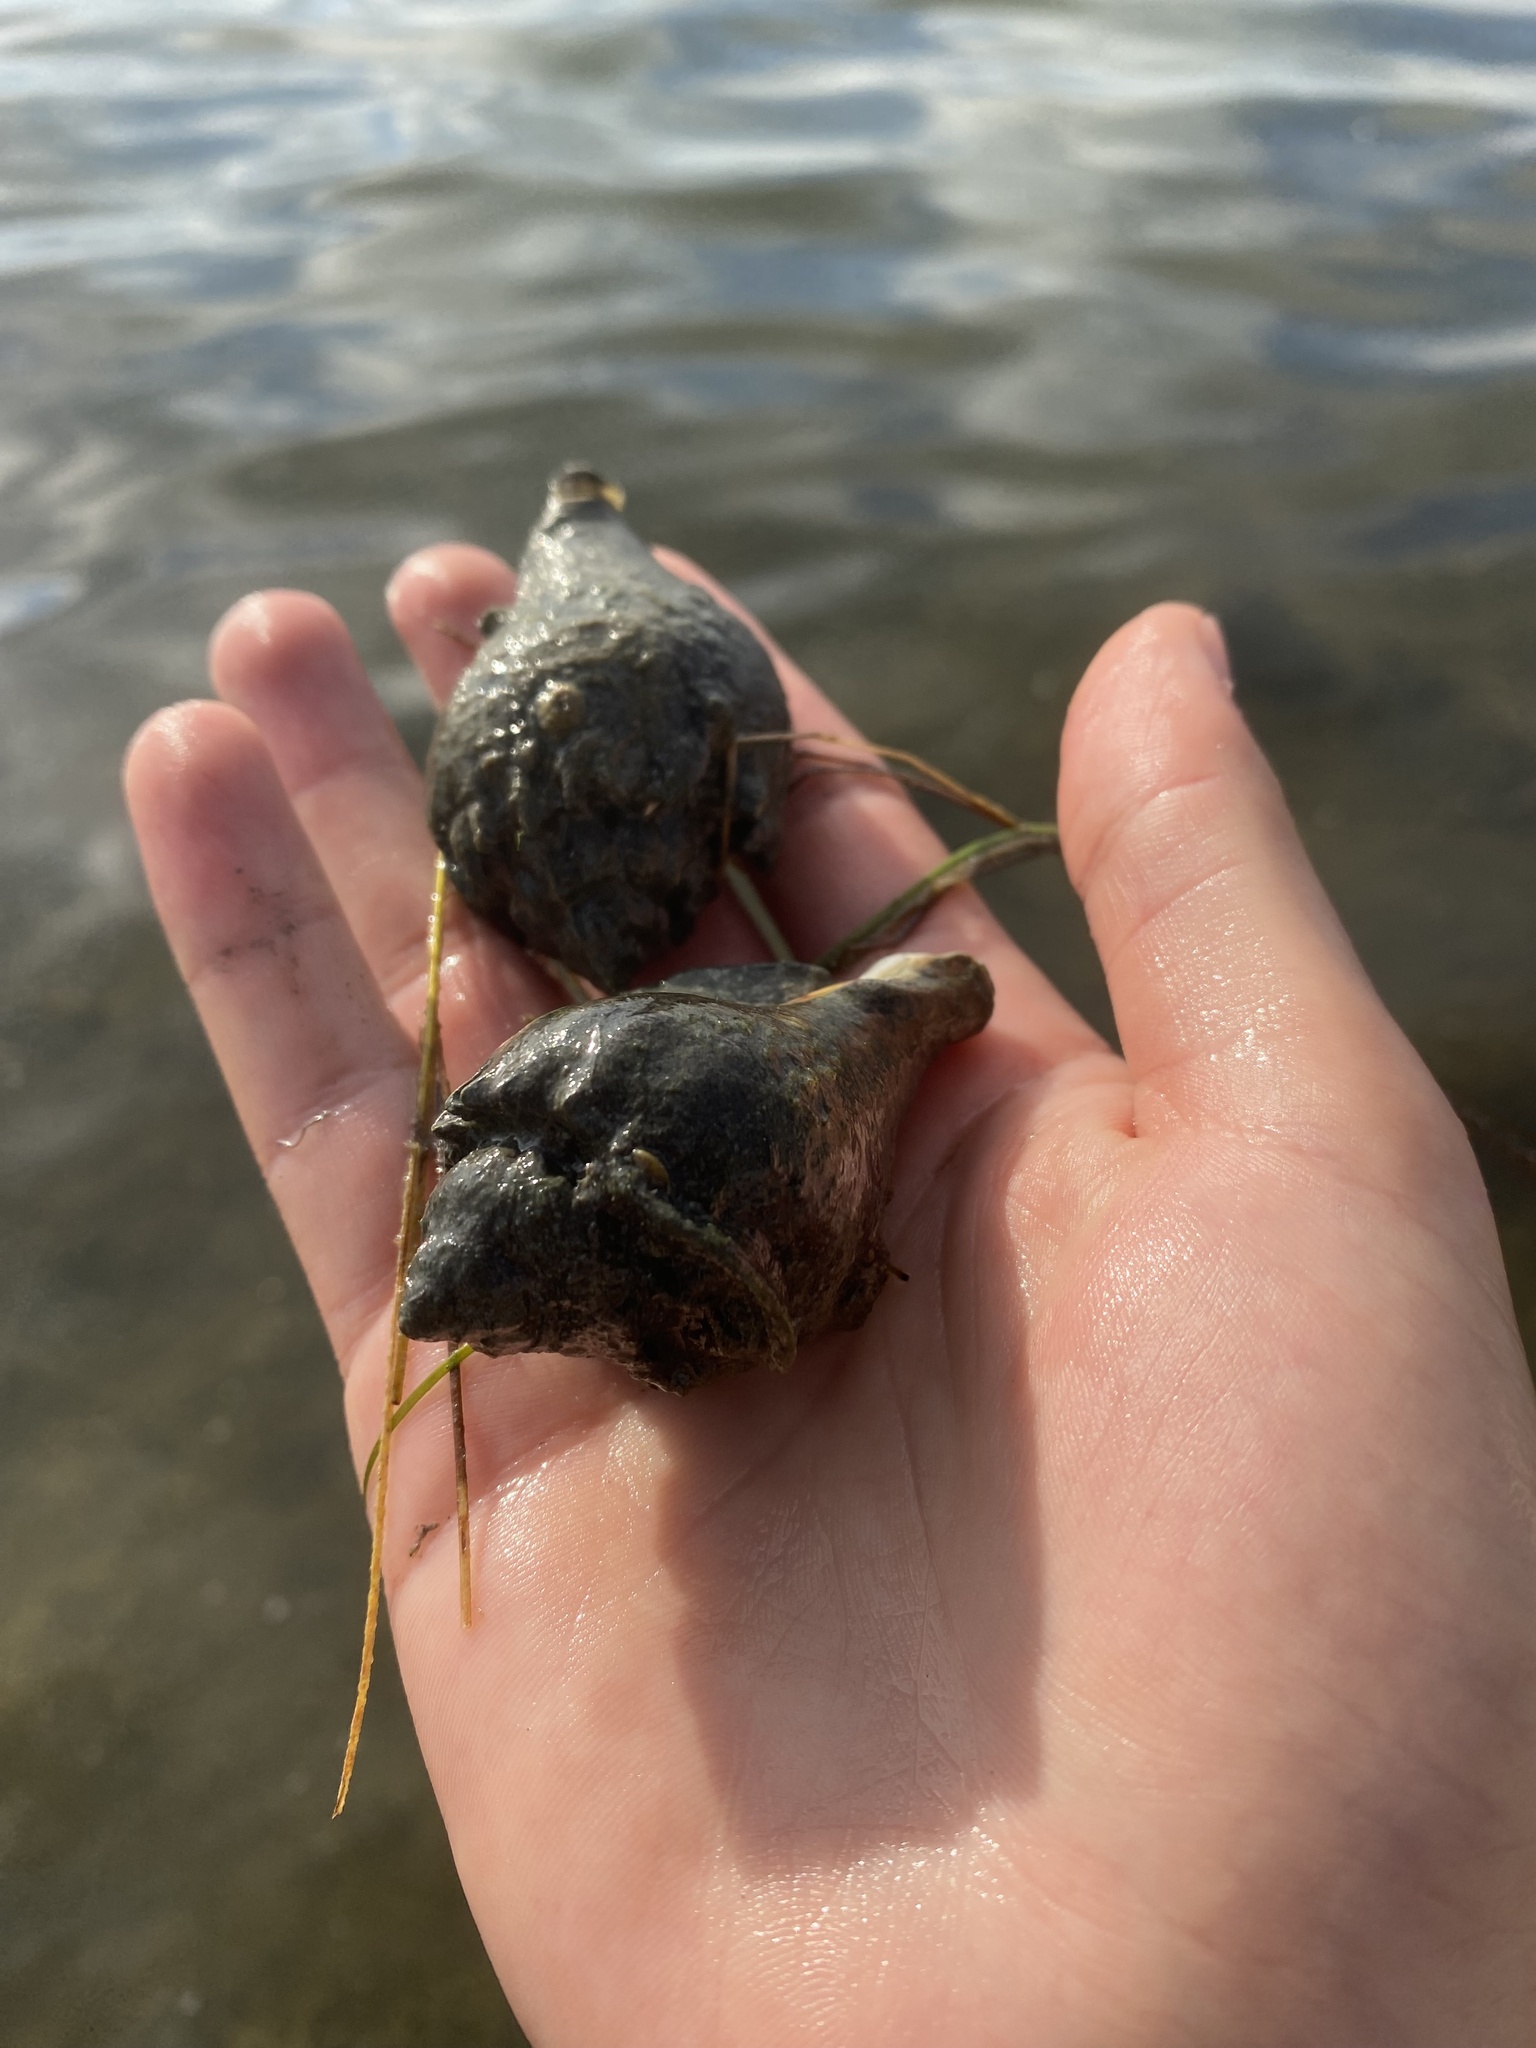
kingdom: Animalia
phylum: Mollusca
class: Gastropoda
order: Neogastropoda
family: Melongenidae
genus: Melongena
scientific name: Melongena corona
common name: American crown conch
